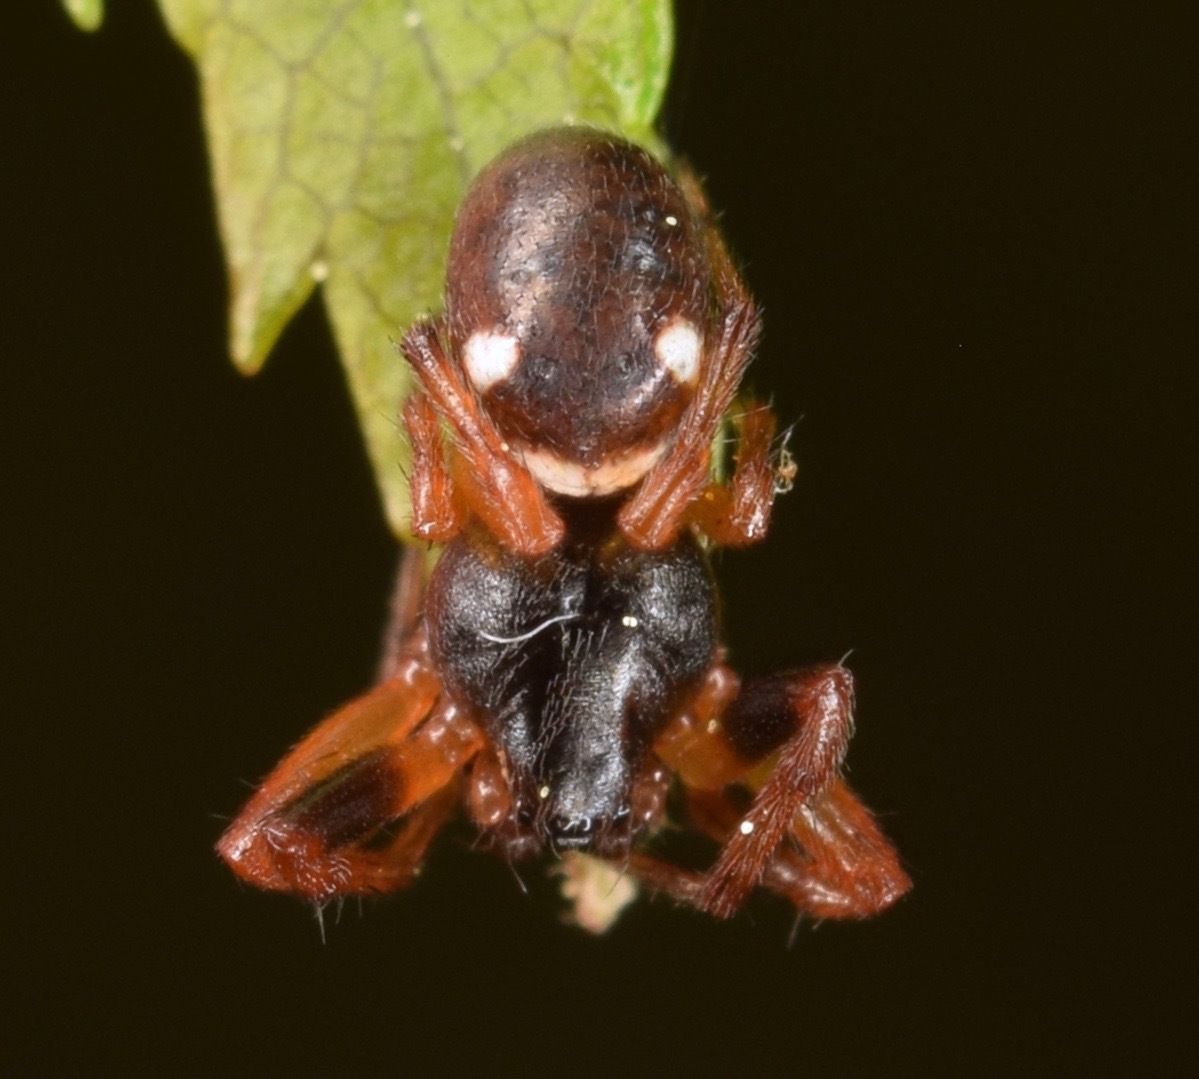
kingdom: Animalia
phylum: Arthropoda
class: Arachnida
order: Araneae
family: Araneidae
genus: Cyclosa
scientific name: Cyclosa turbinata
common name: Orb weavers
